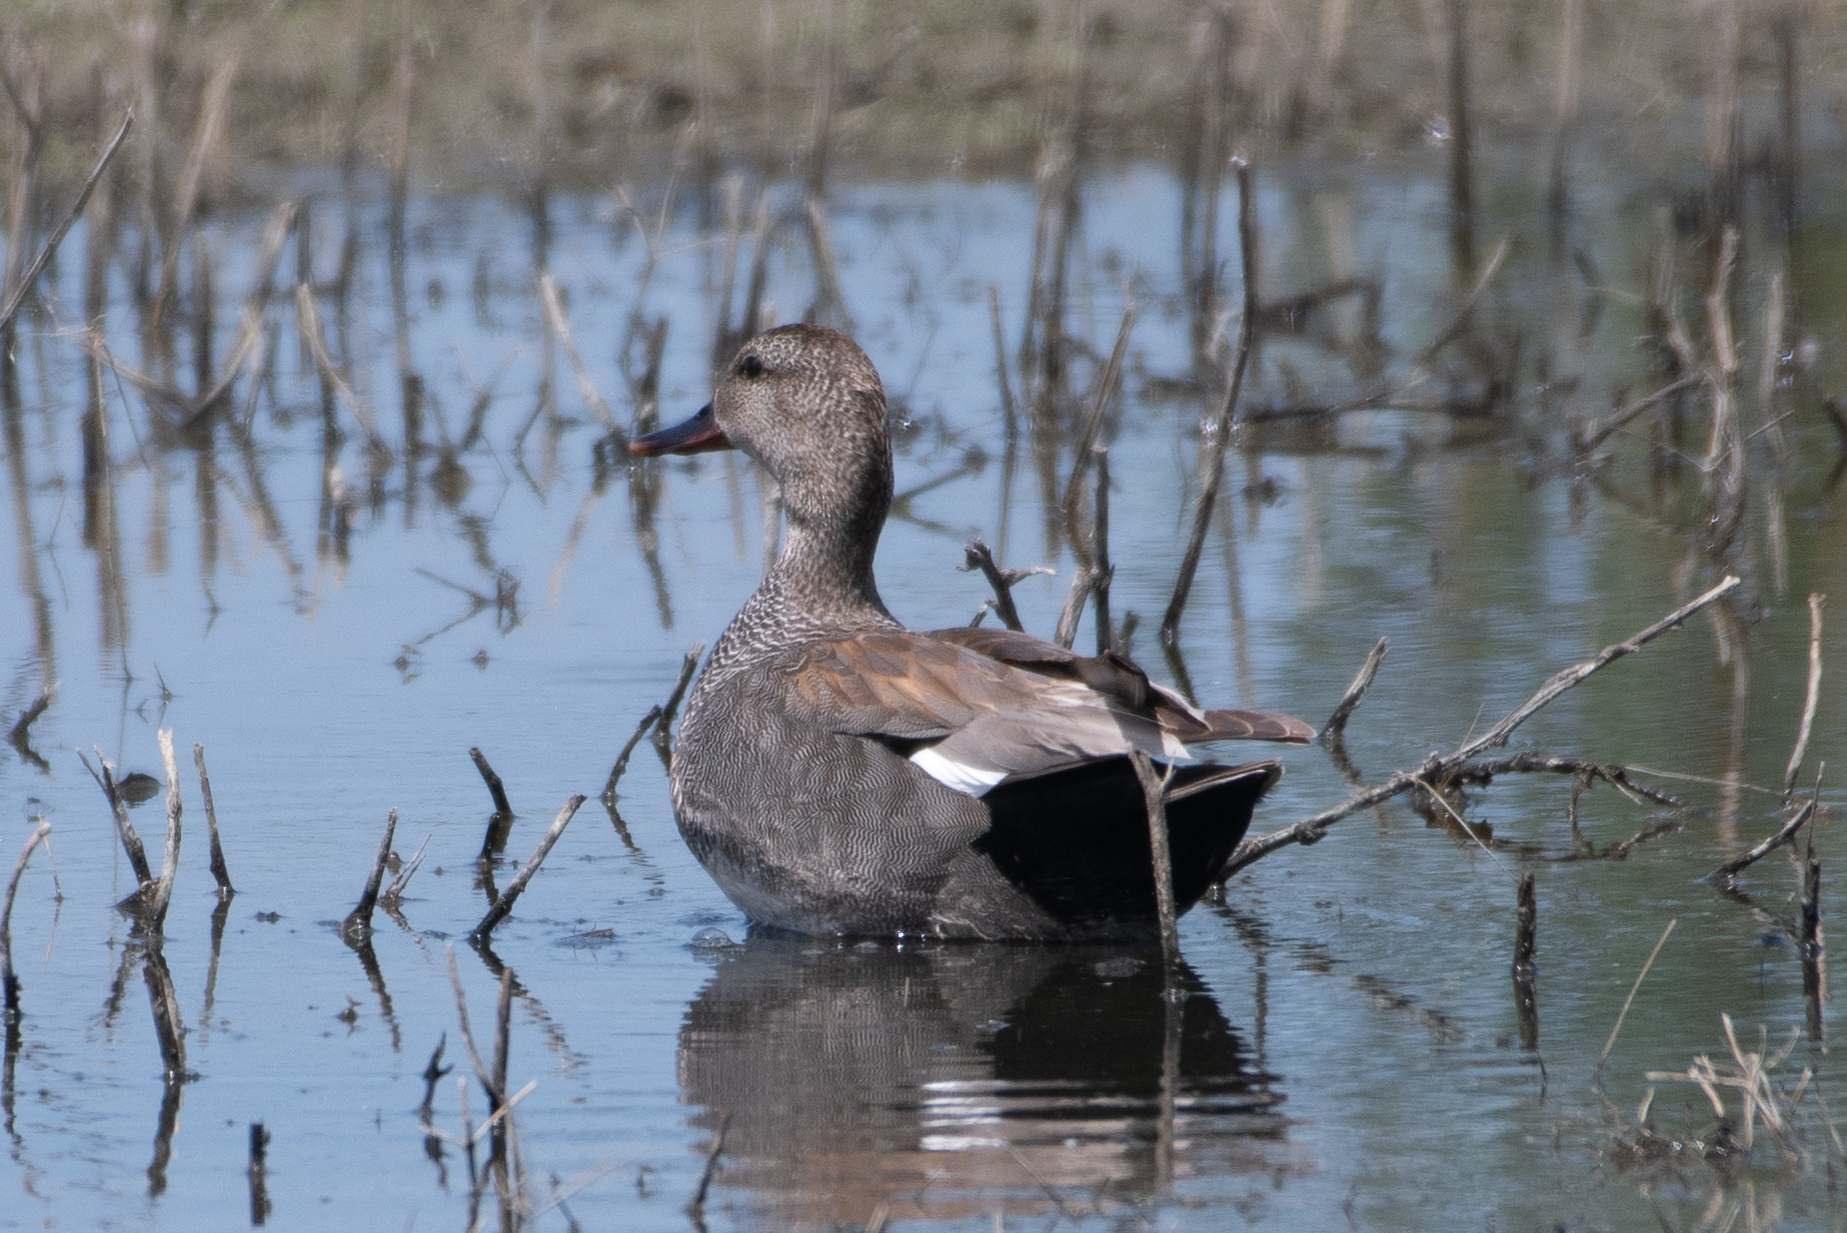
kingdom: Animalia
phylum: Chordata
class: Aves
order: Anseriformes
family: Anatidae
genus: Mareca
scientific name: Mareca strepera
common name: Gadwall
